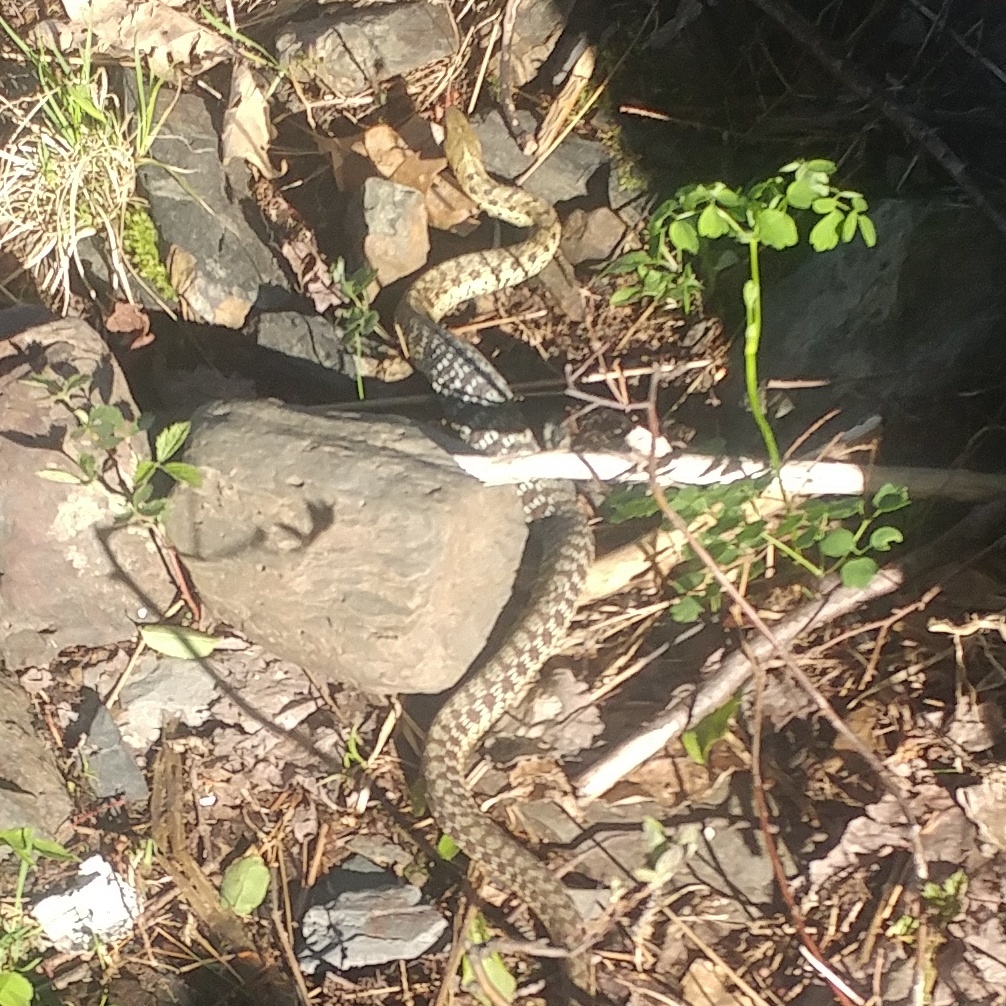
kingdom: Animalia
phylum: Chordata
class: Squamata
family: Colubridae
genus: Thamnophis
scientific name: Thamnophis sirtalis
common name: Common garter snake
